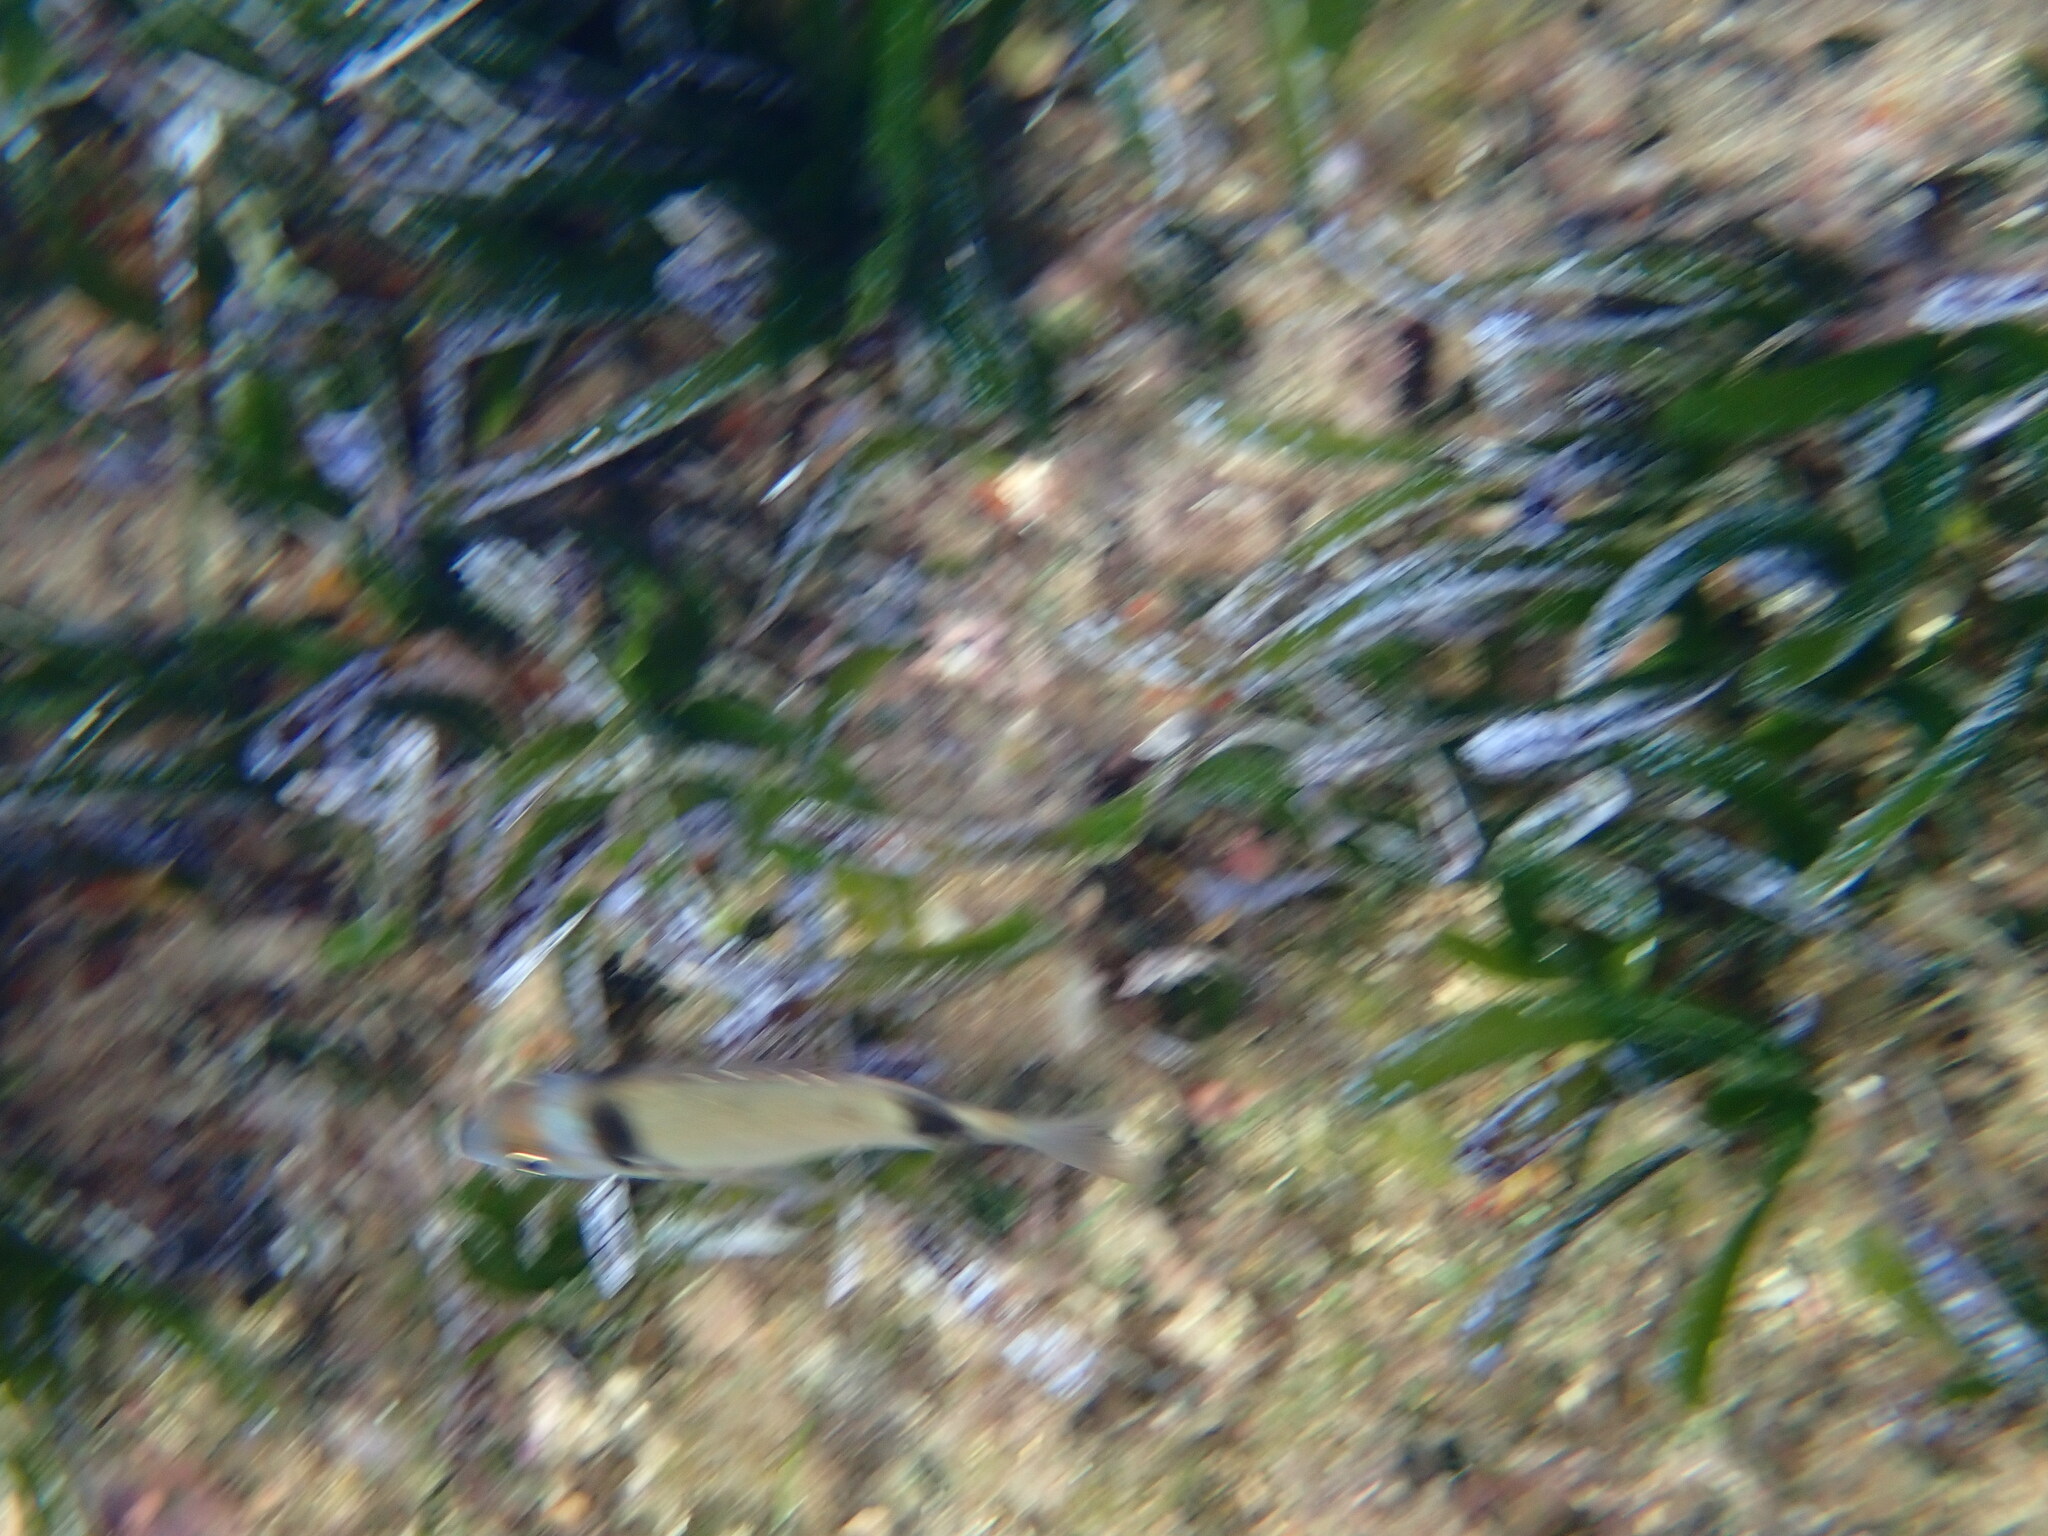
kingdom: Animalia
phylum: Chordata
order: Perciformes
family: Sparidae
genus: Diplodus
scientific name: Diplodus vulgaris
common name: Common two-banded seabream
